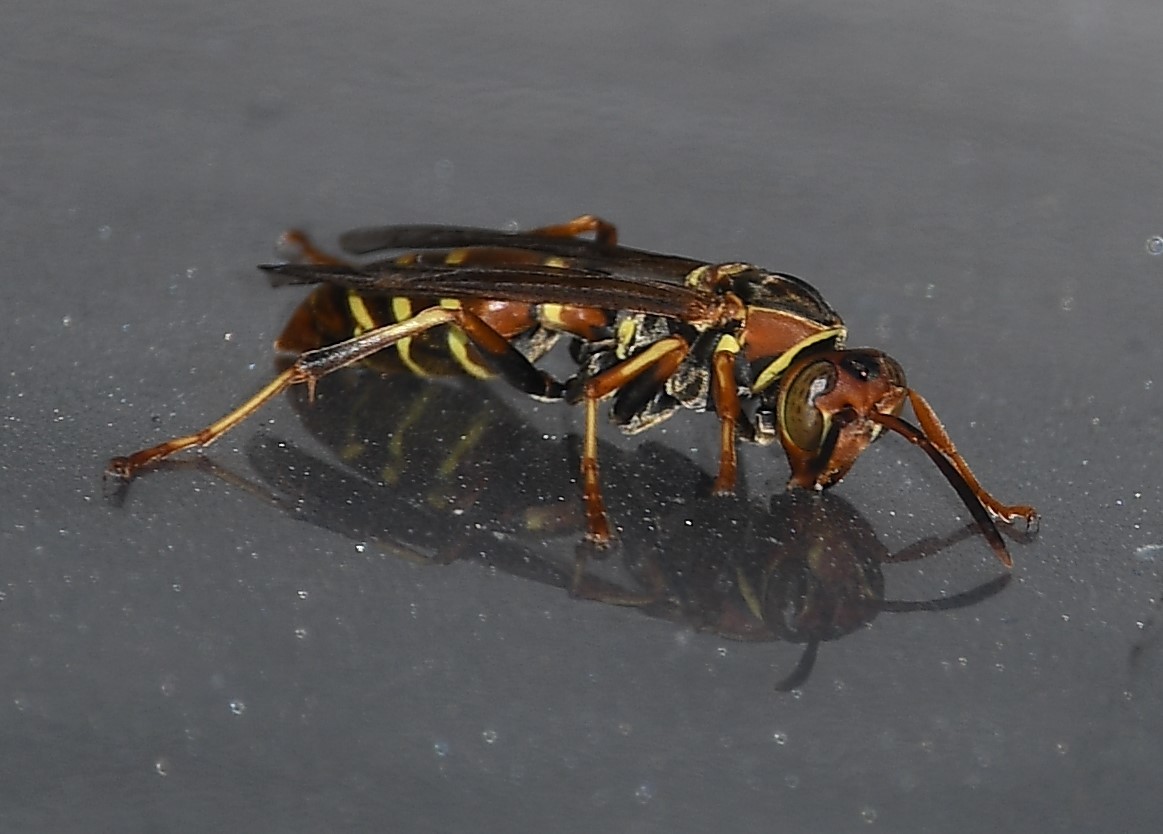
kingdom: Animalia
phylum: Arthropoda
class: Insecta
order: Hymenoptera
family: Eumenidae
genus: Polistes
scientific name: Polistes fuscatus
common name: Dark paper wasp
